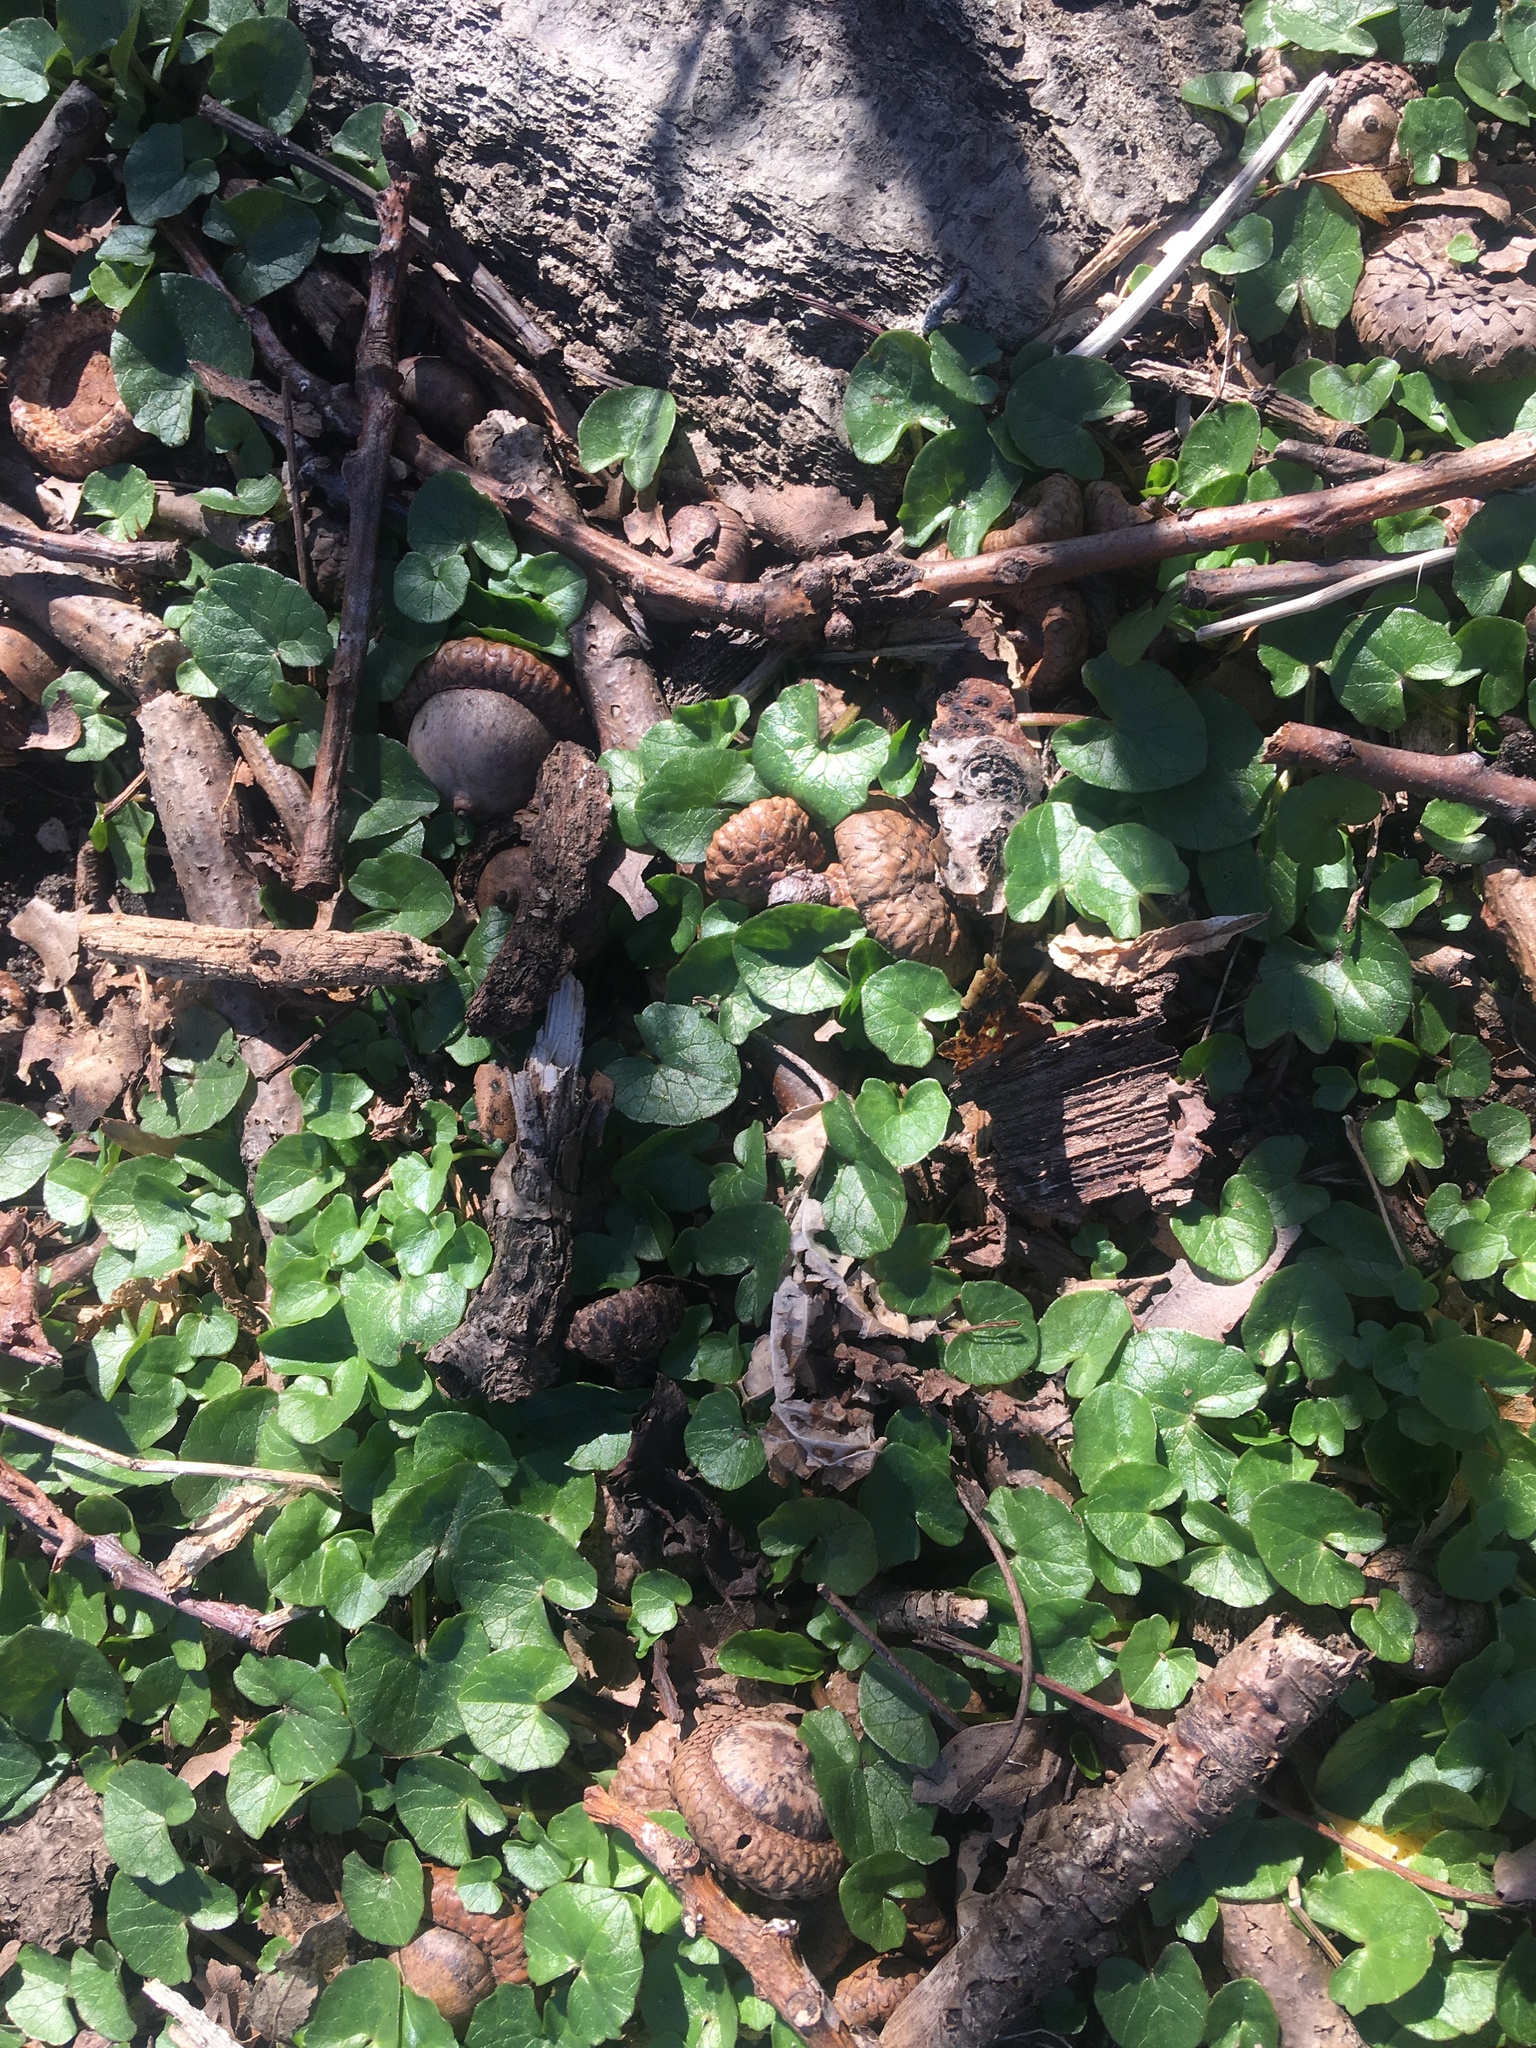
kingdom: Plantae
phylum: Tracheophyta
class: Magnoliopsida
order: Ranunculales
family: Ranunculaceae
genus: Ficaria
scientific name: Ficaria verna
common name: Lesser celandine
